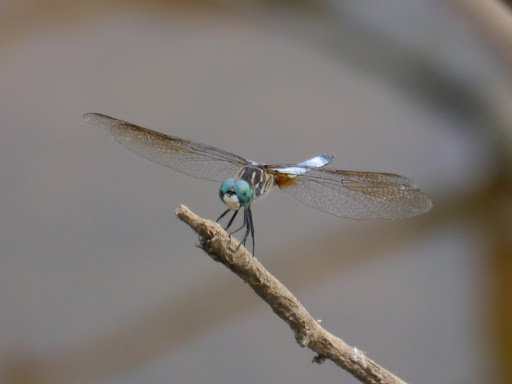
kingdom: Animalia
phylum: Arthropoda
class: Insecta
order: Odonata
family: Libellulidae
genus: Pachydiplax
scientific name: Pachydiplax longipennis
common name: Blue dasher
